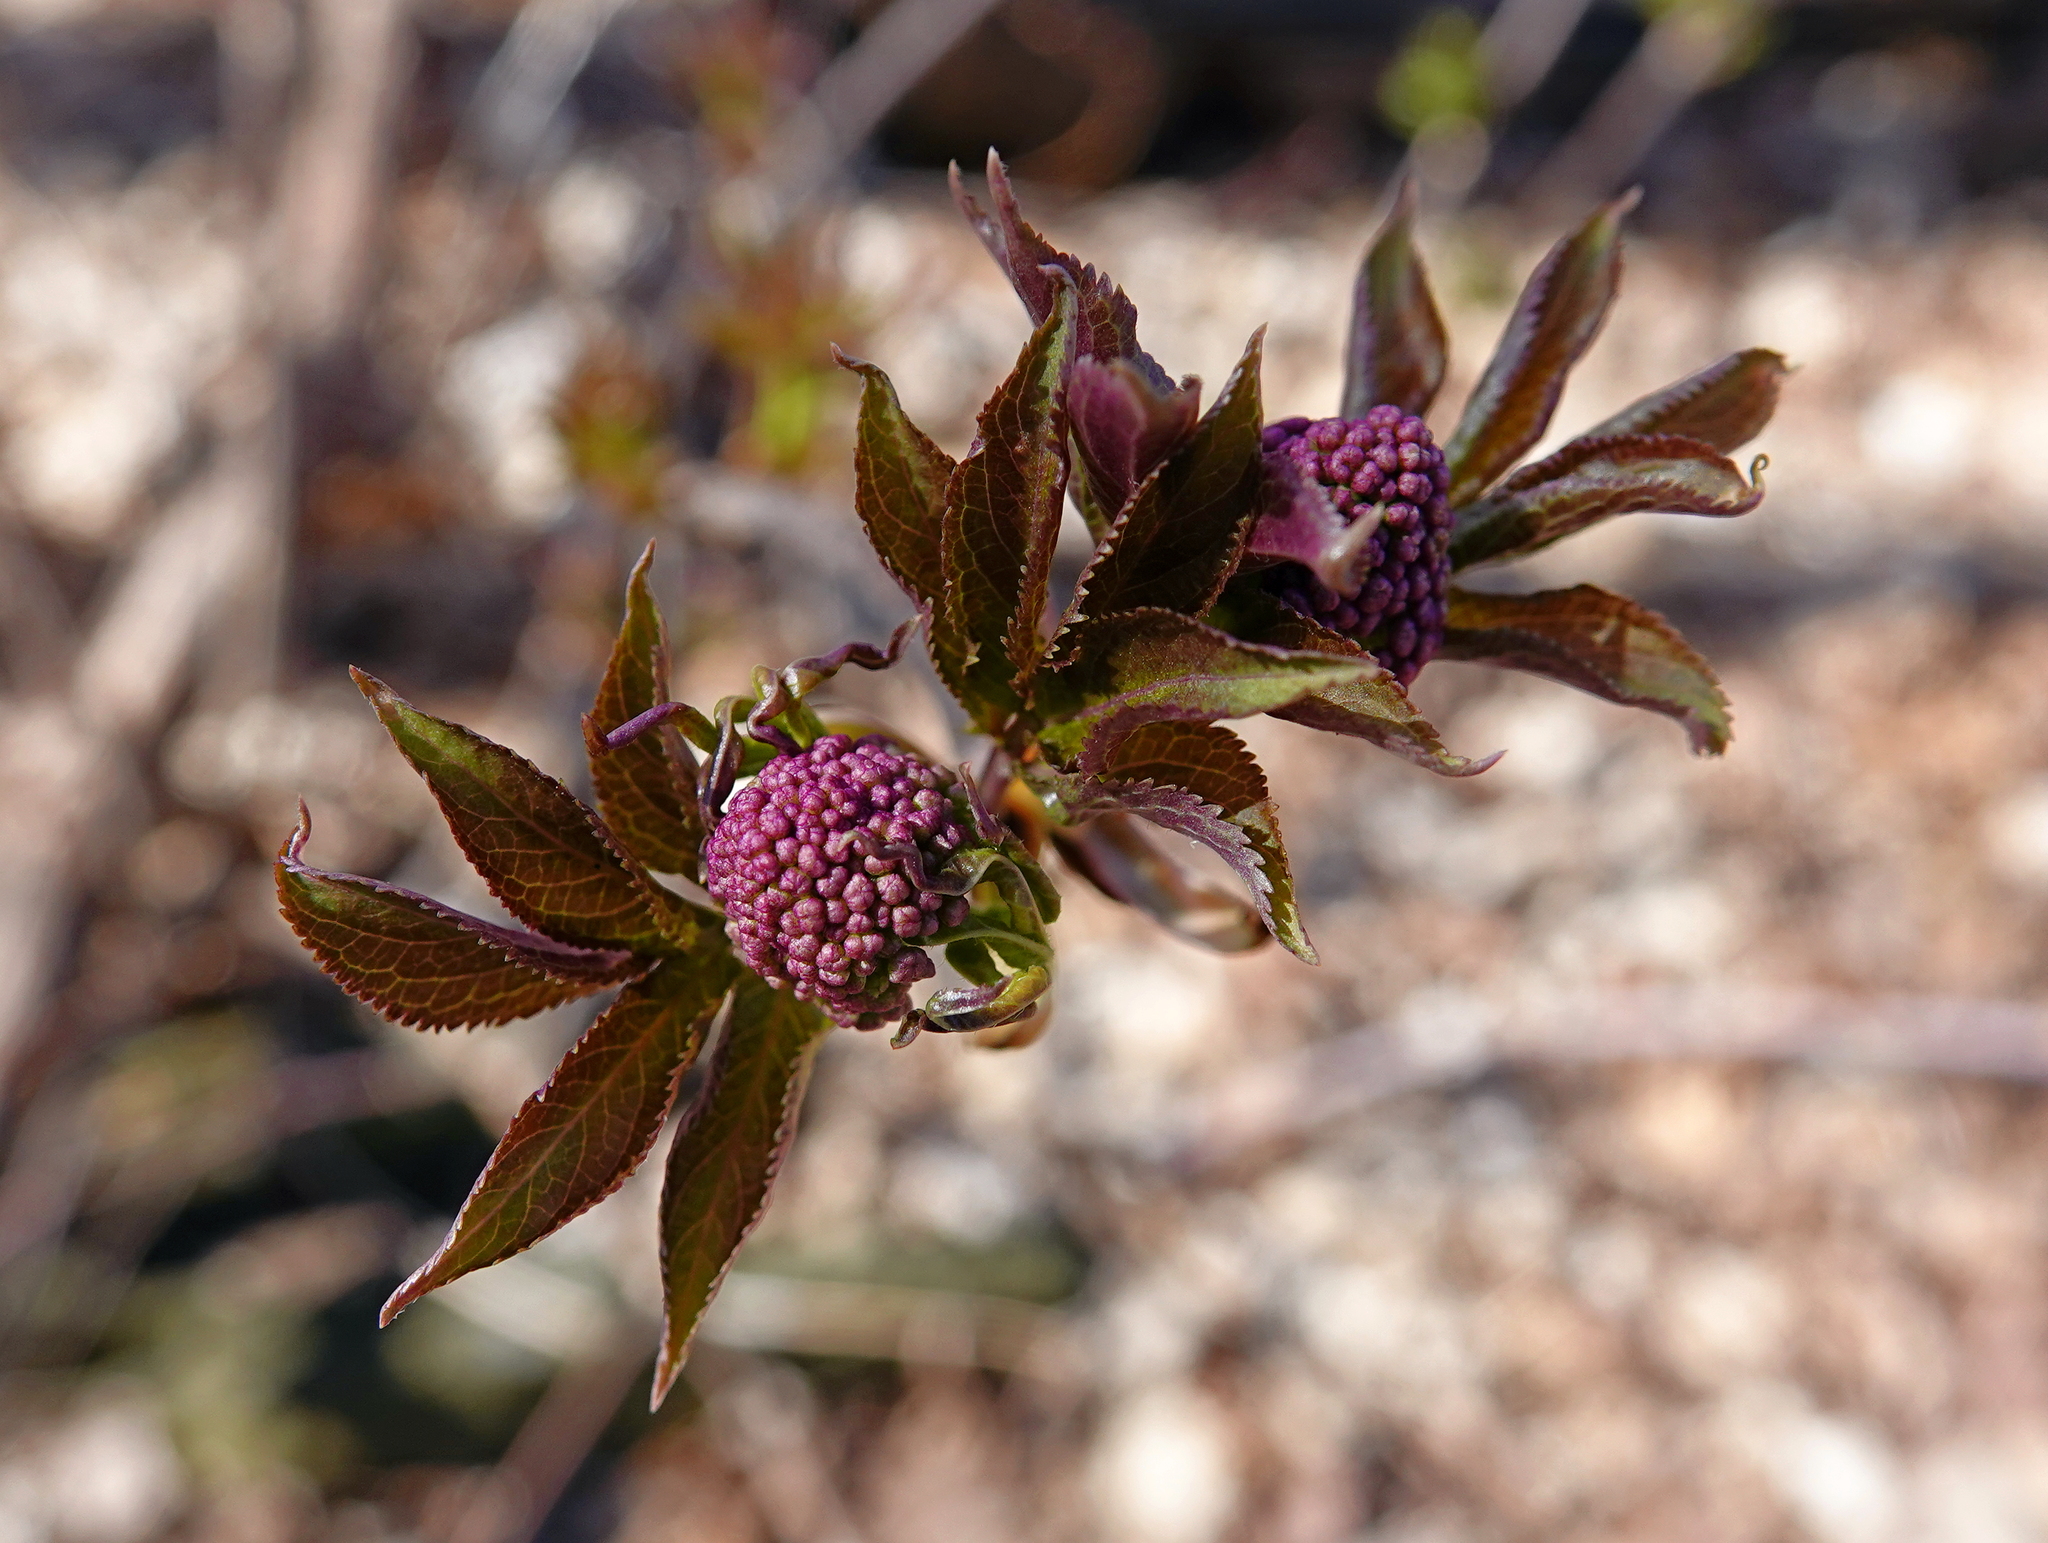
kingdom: Plantae
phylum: Tracheophyta
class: Magnoliopsida
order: Dipsacales
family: Viburnaceae
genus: Sambucus
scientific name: Sambucus racemosa
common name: Red-berried elder
